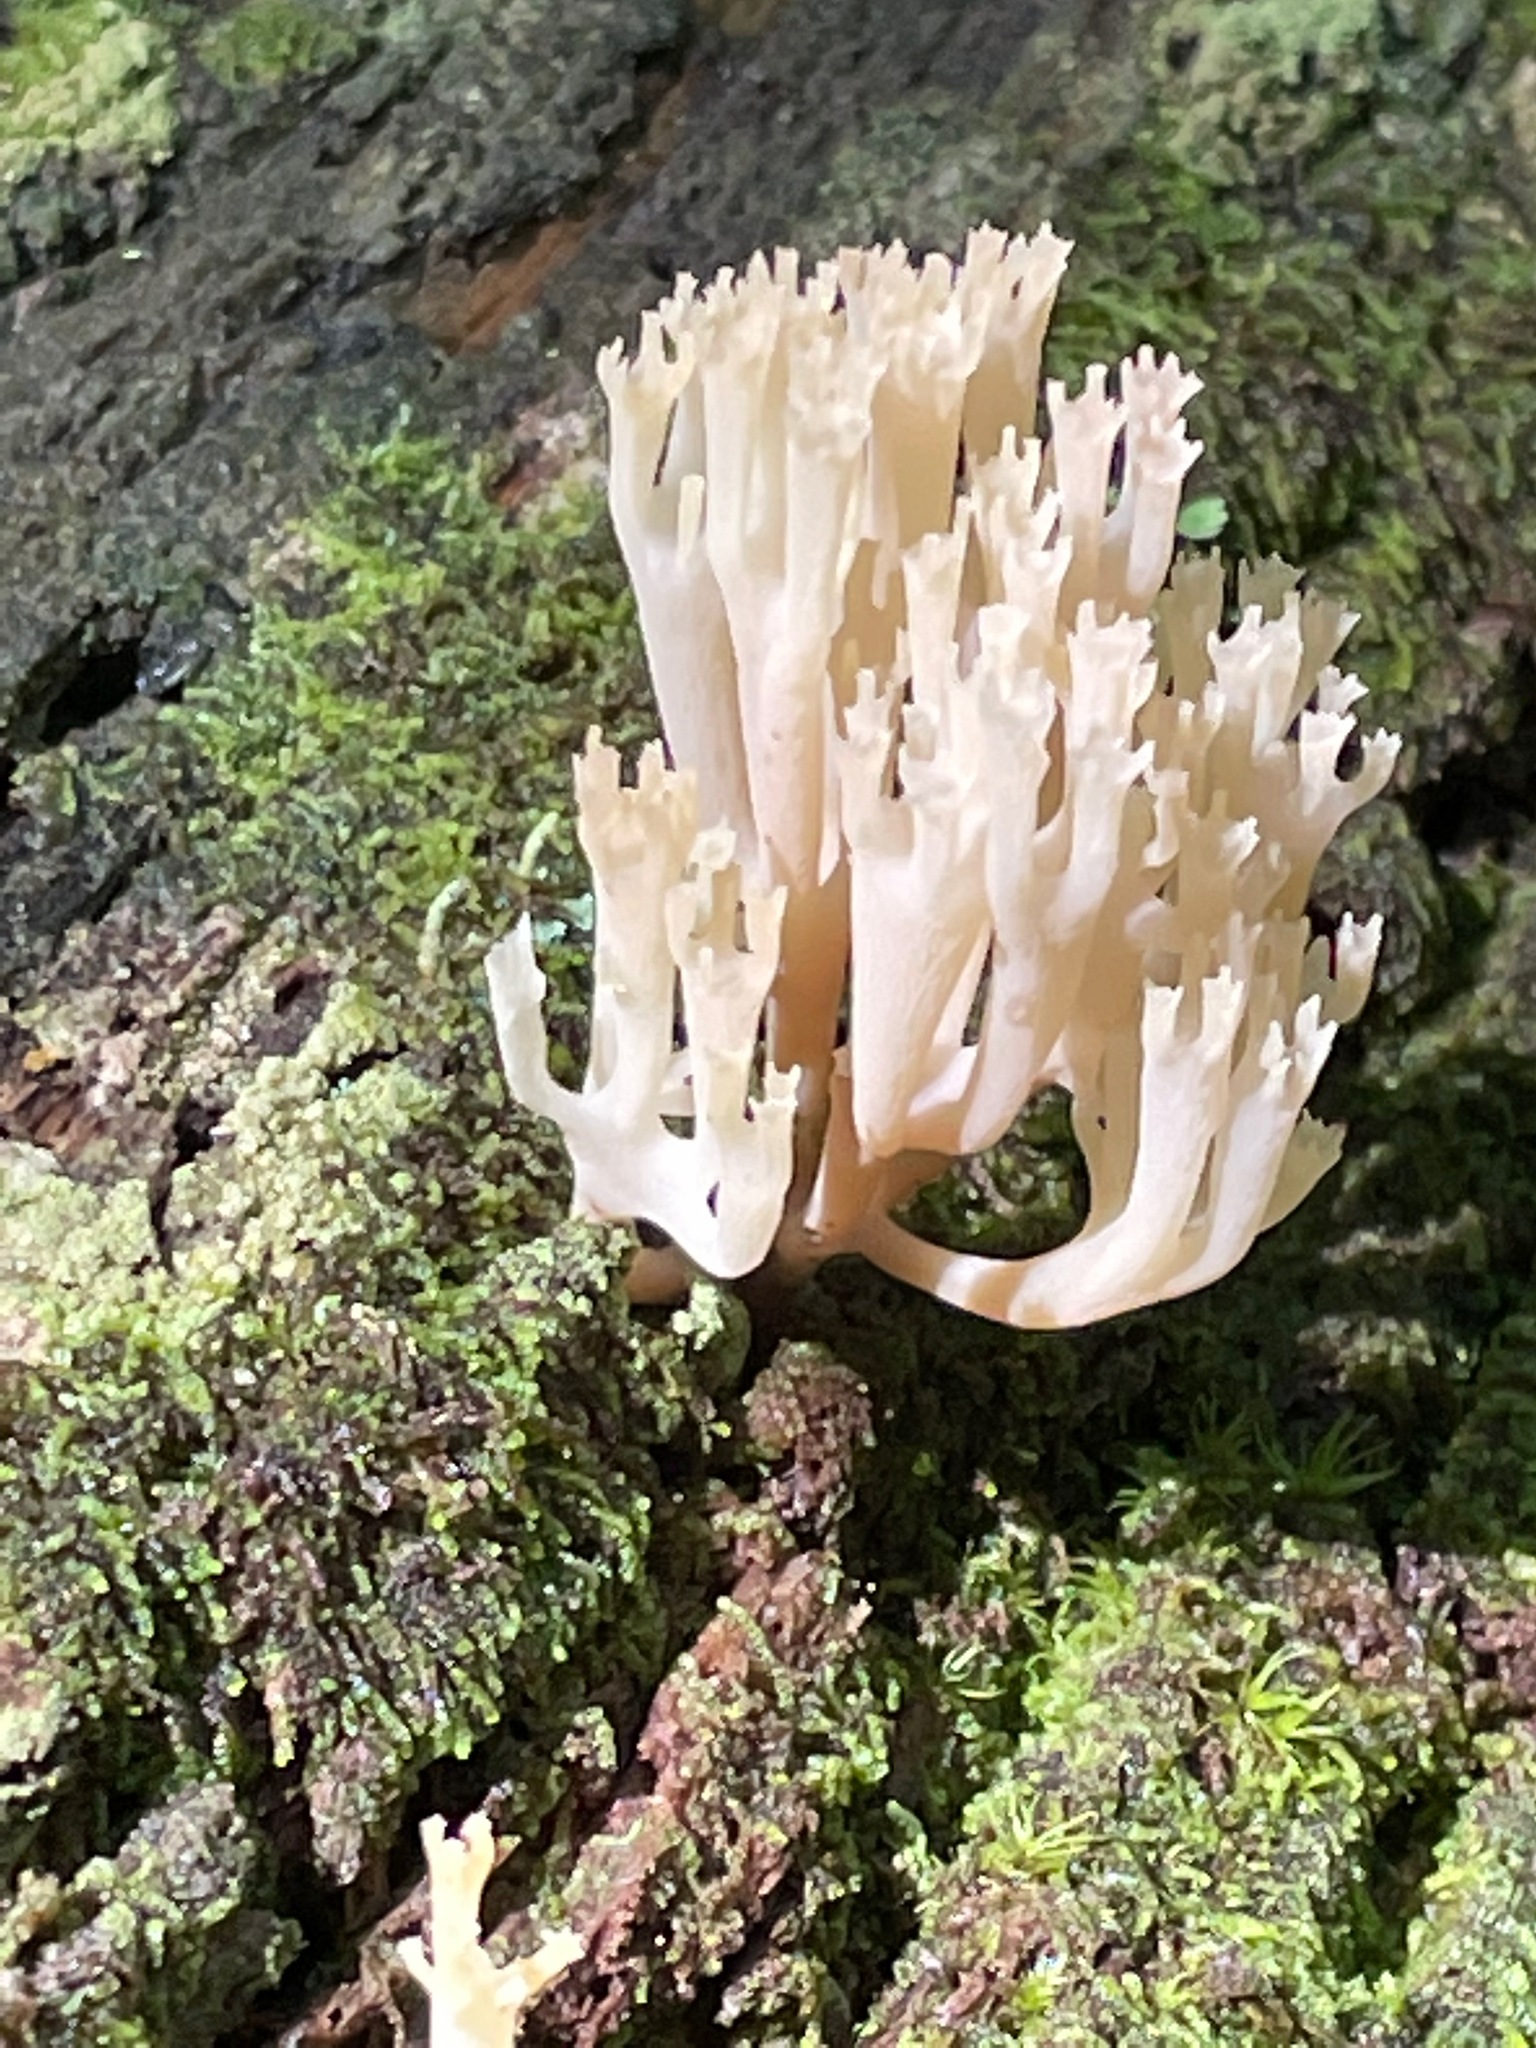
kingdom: Fungi
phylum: Basidiomycota
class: Agaricomycetes
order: Russulales
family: Auriscalpiaceae
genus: Artomyces
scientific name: Artomyces pyxidatus
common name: Crown-tipped coral fungus
